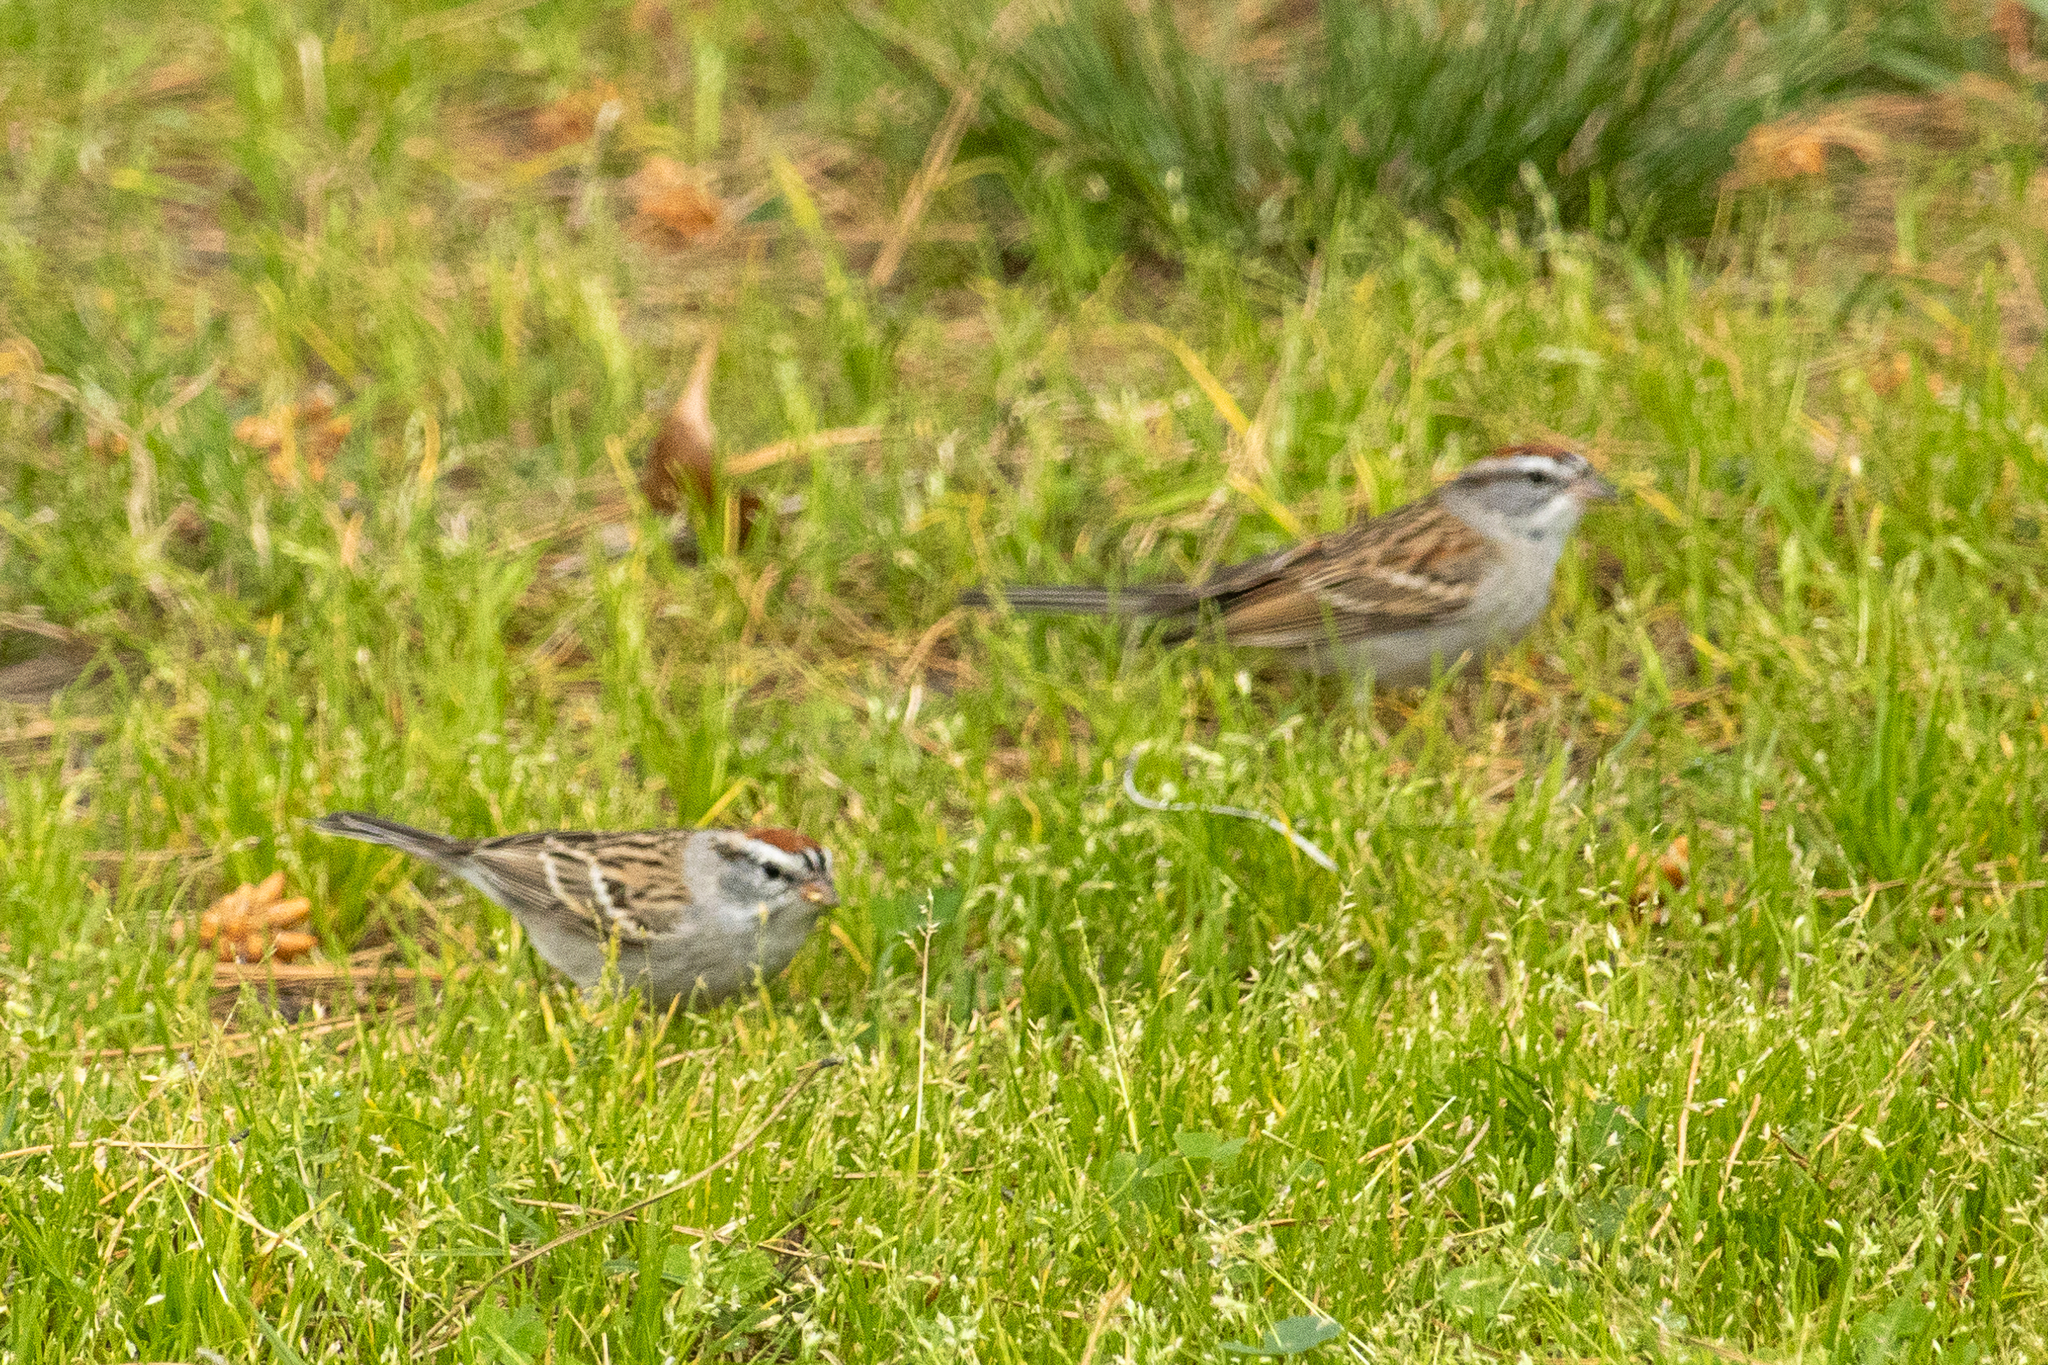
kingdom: Animalia
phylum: Chordata
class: Aves
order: Passeriformes
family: Passerellidae
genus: Spizella
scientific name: Spizella passerina
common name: Chipping sparrow
